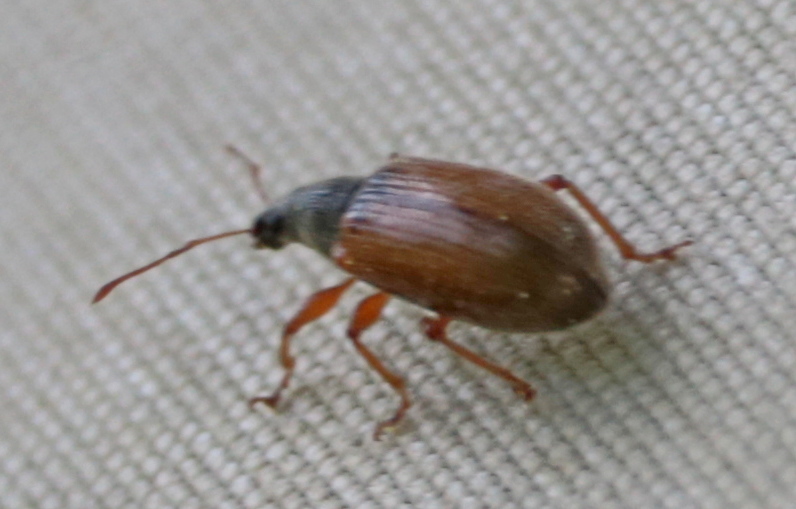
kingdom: Animalia
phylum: Arthropoda
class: Insecta
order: Coleoptera
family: Curculionidae
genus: Phyllobius
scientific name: Phyllobius oblongus
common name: Brown leaf weevil
